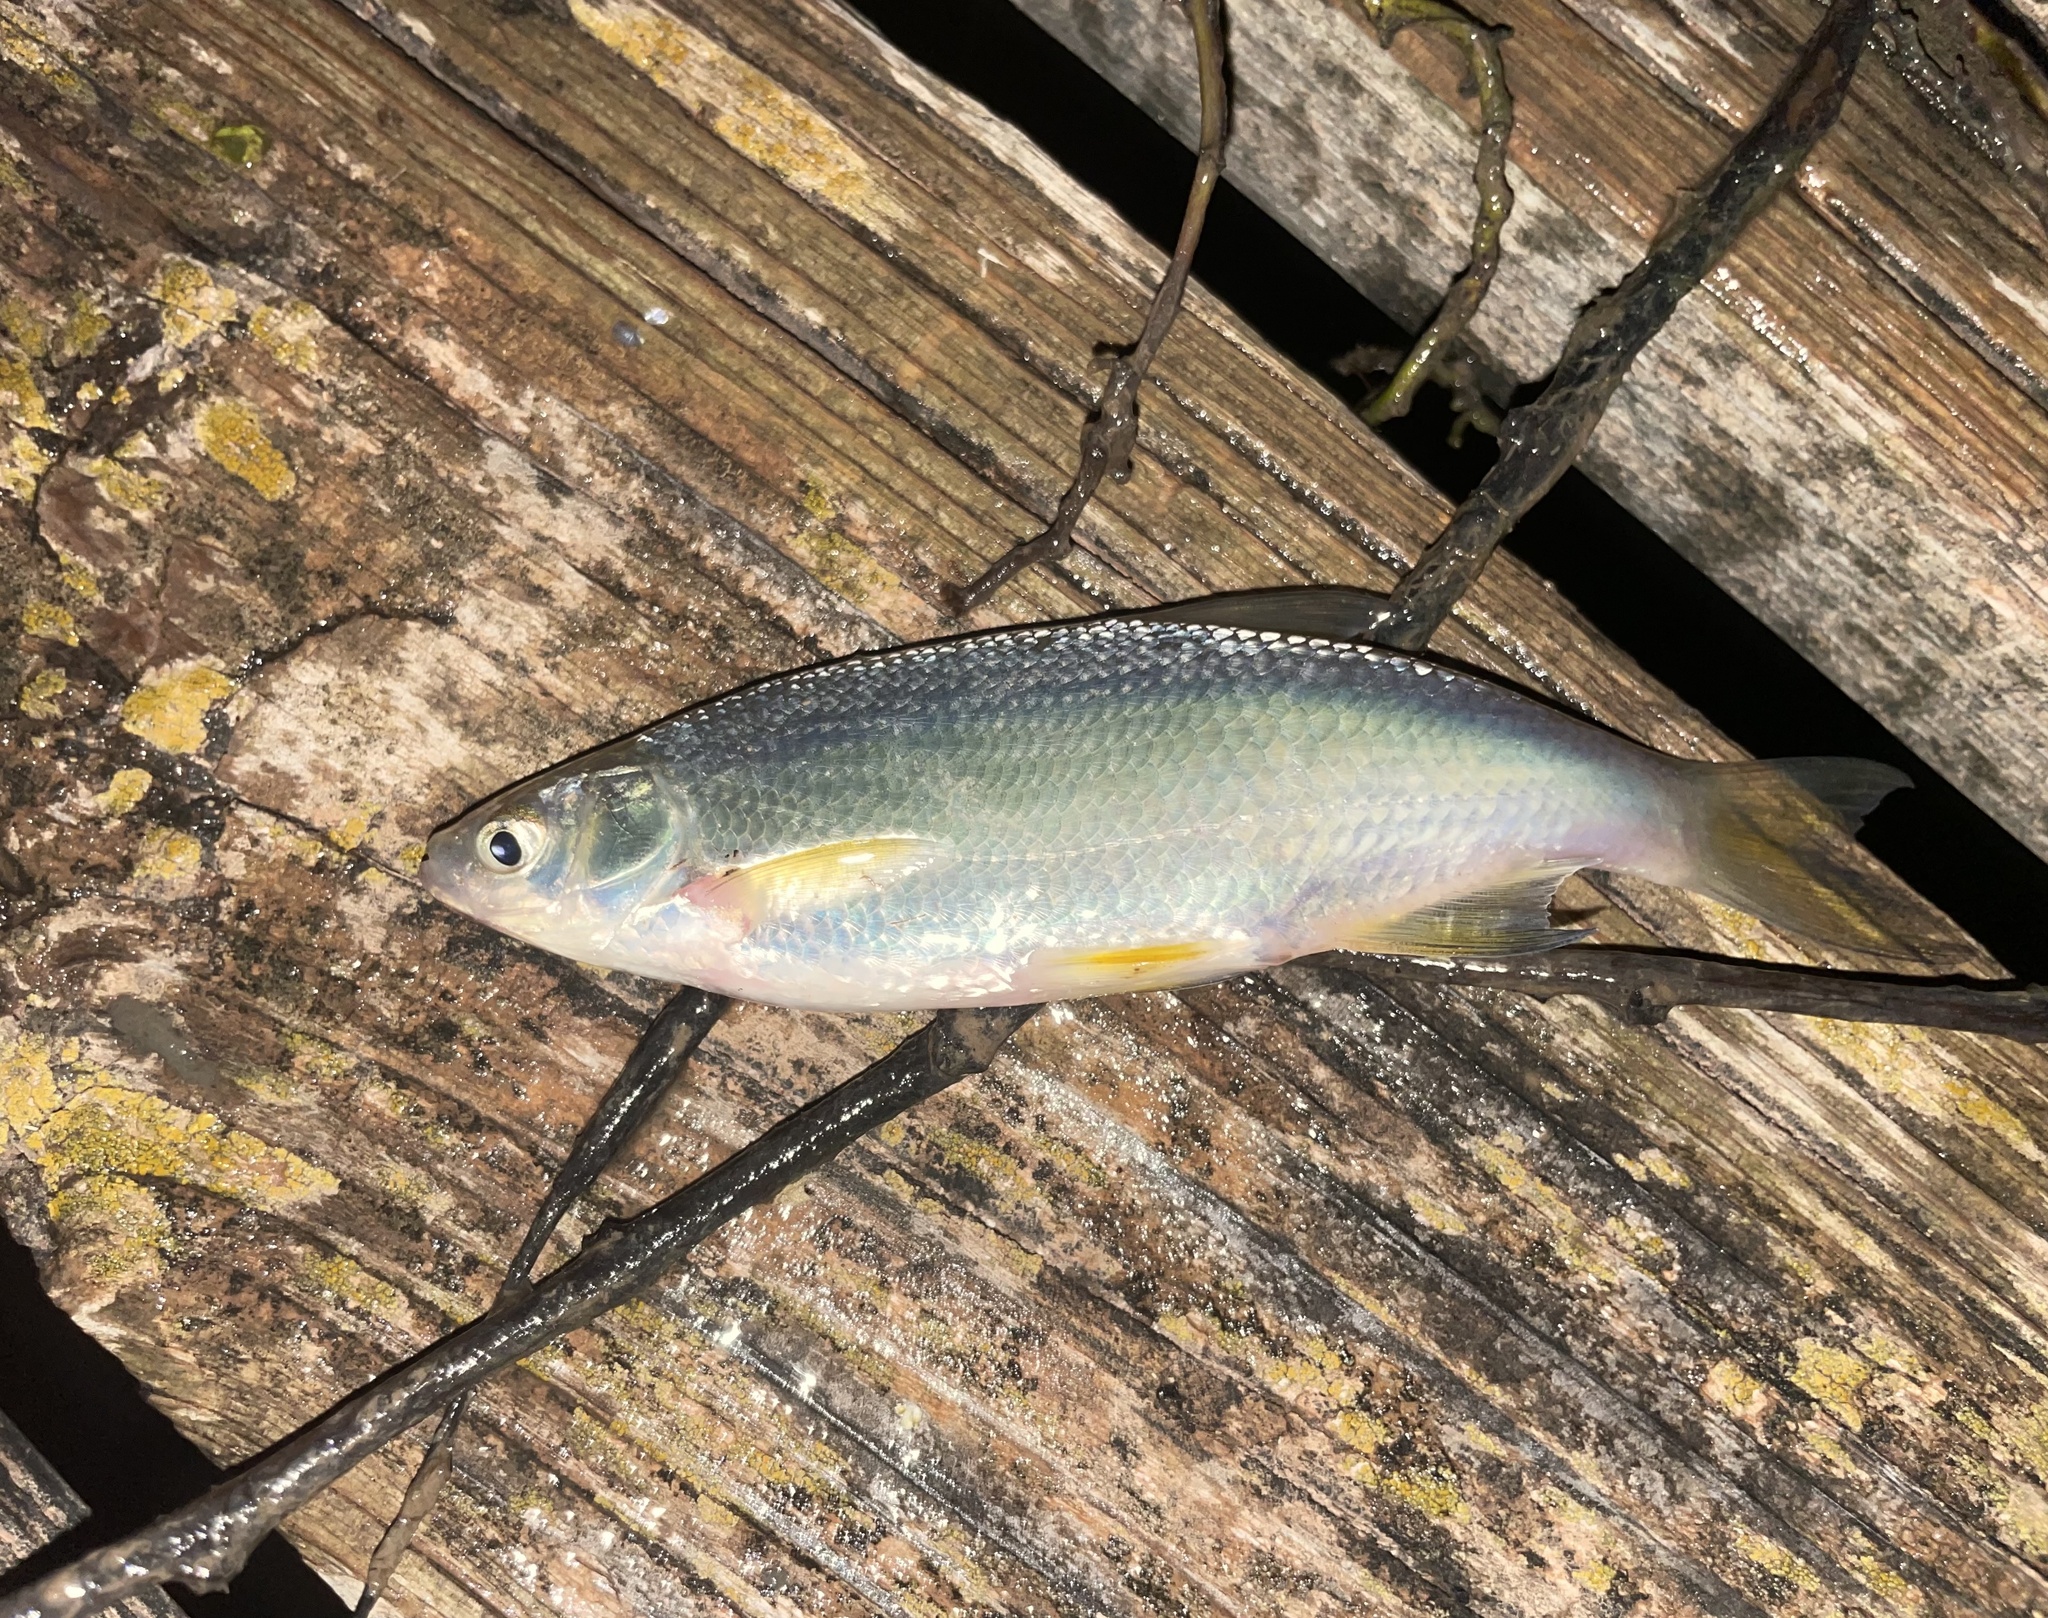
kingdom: Animalia
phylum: Chordata
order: Cypriniformes
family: Cyprinidae
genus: Notemigonus
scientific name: Notemigonus crysoleucas
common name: Golden shiner
